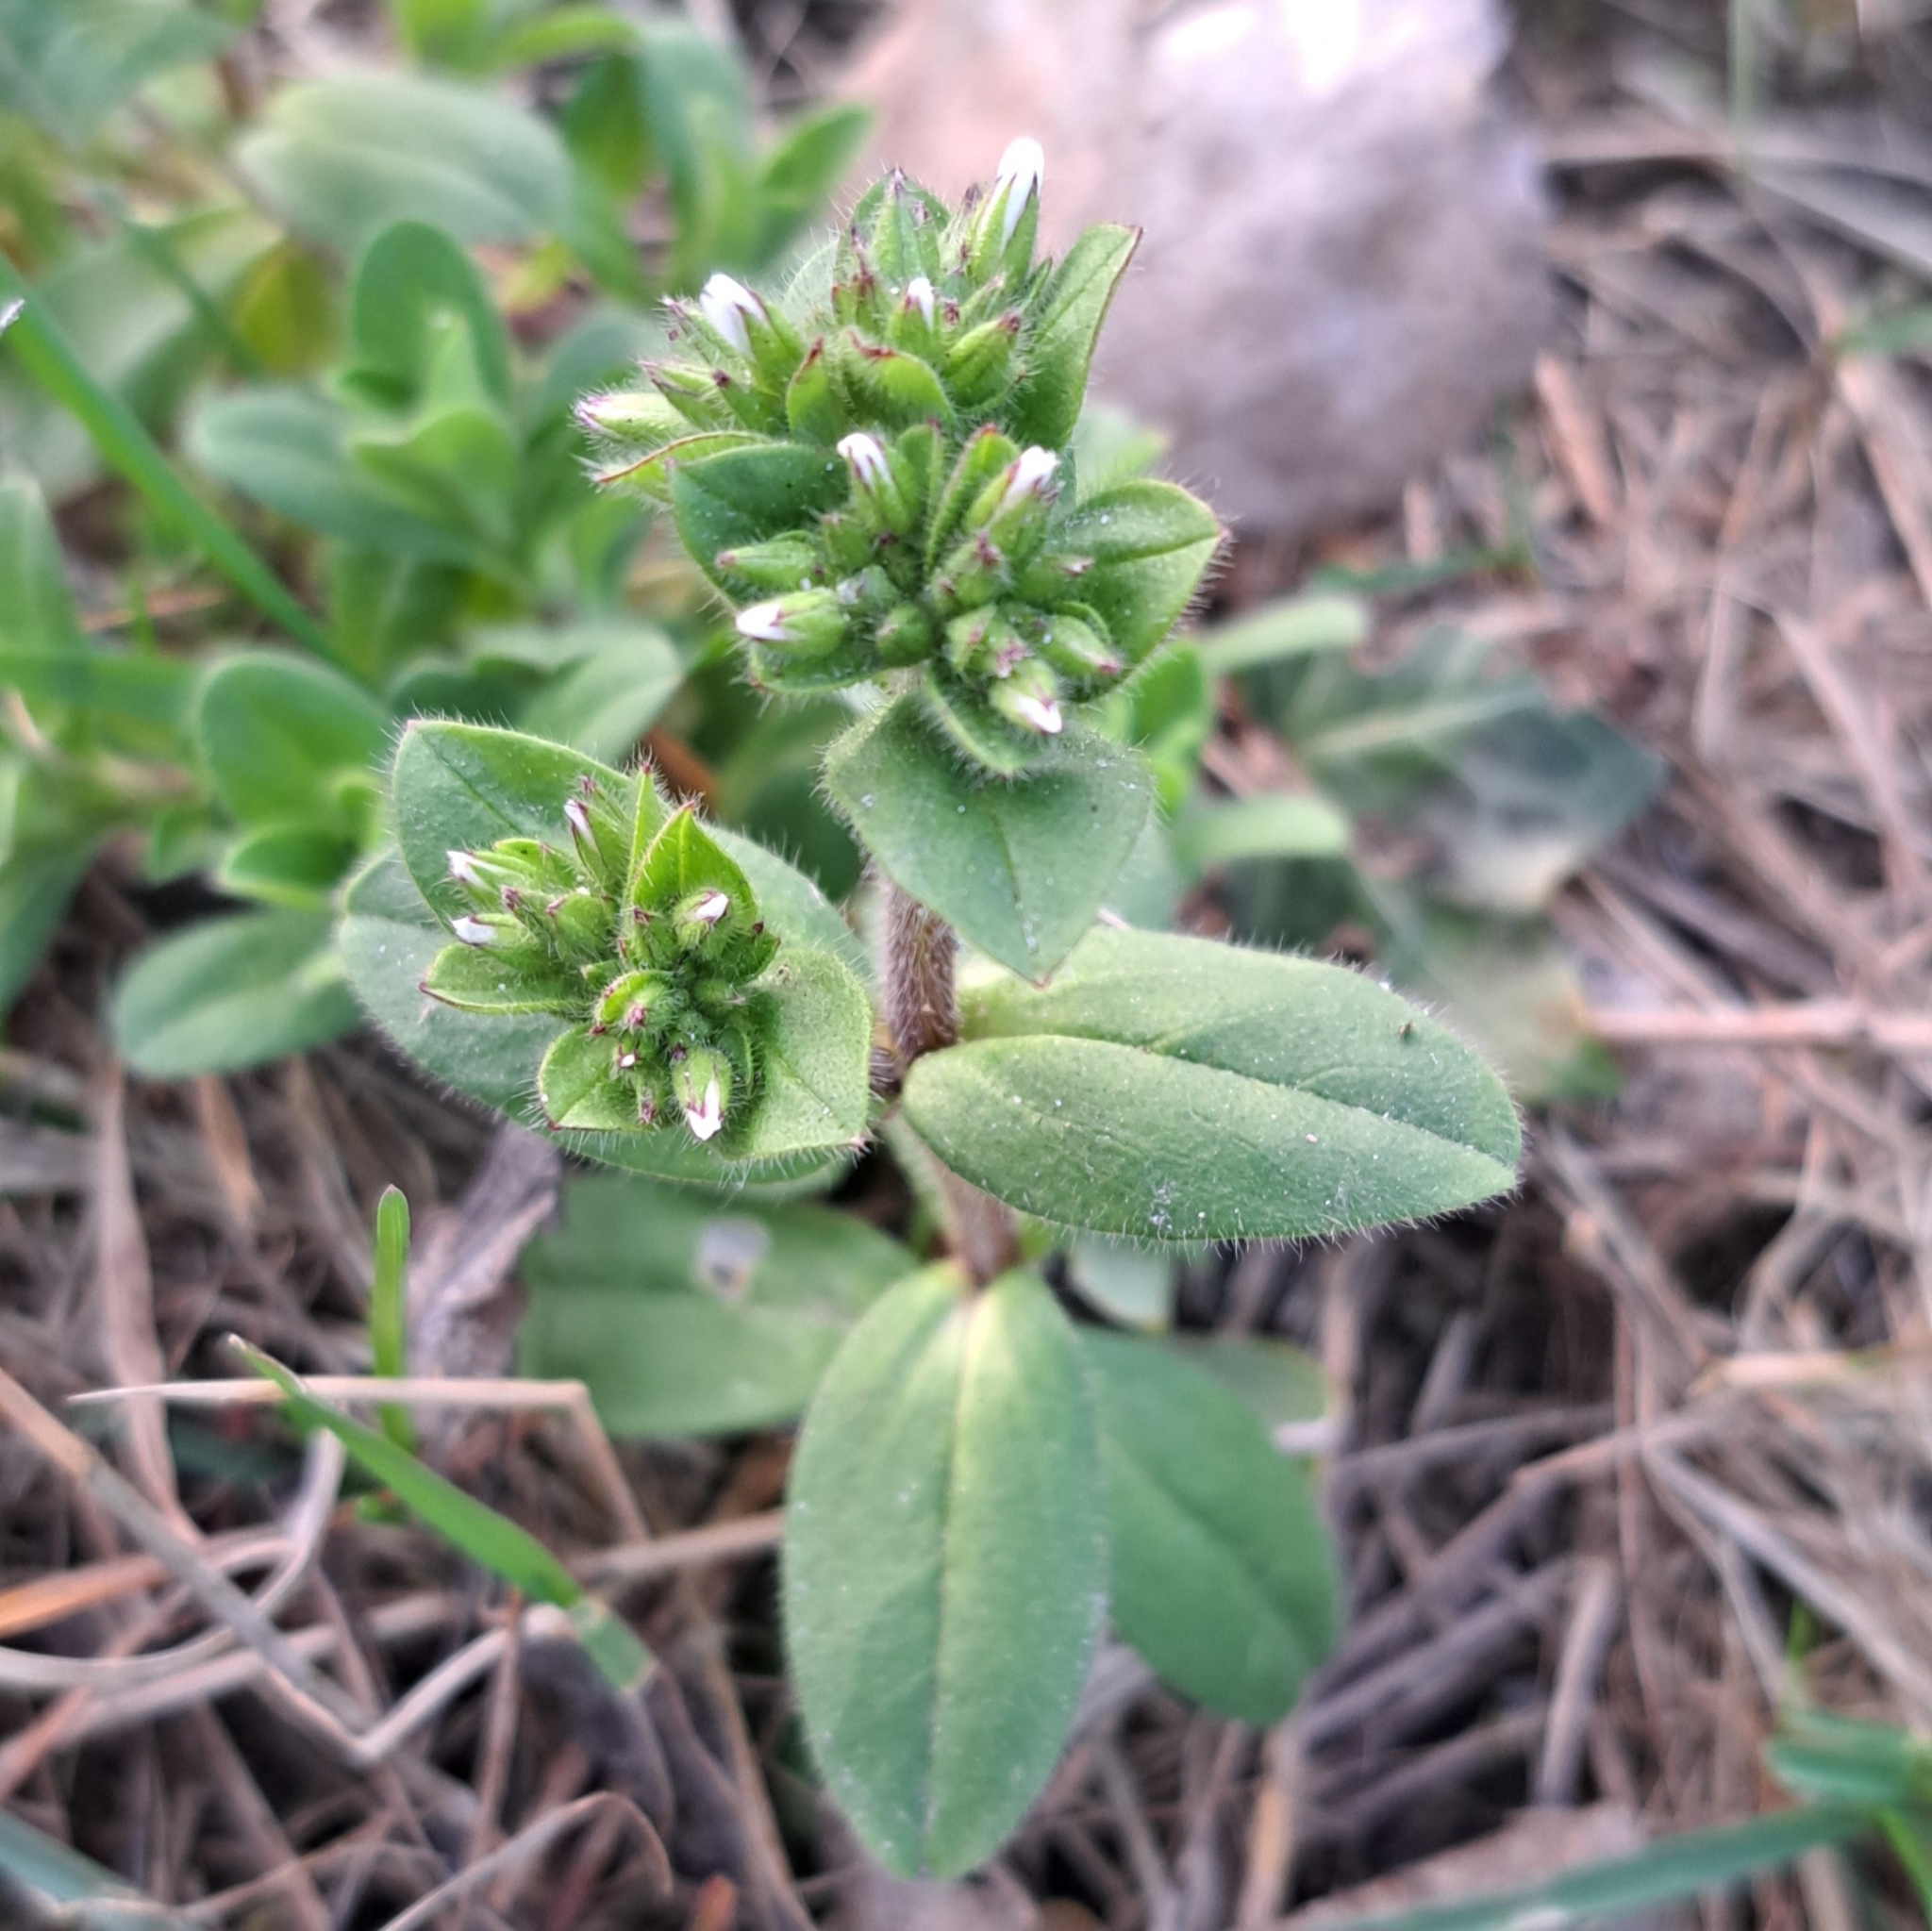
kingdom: Plantae
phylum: Tracheophyta
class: Magnoliopsida
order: Caryophyllales
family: Caryophyllaceae
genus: Cerastium
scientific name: Cerastium glomeratum
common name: Sticky chickweed
